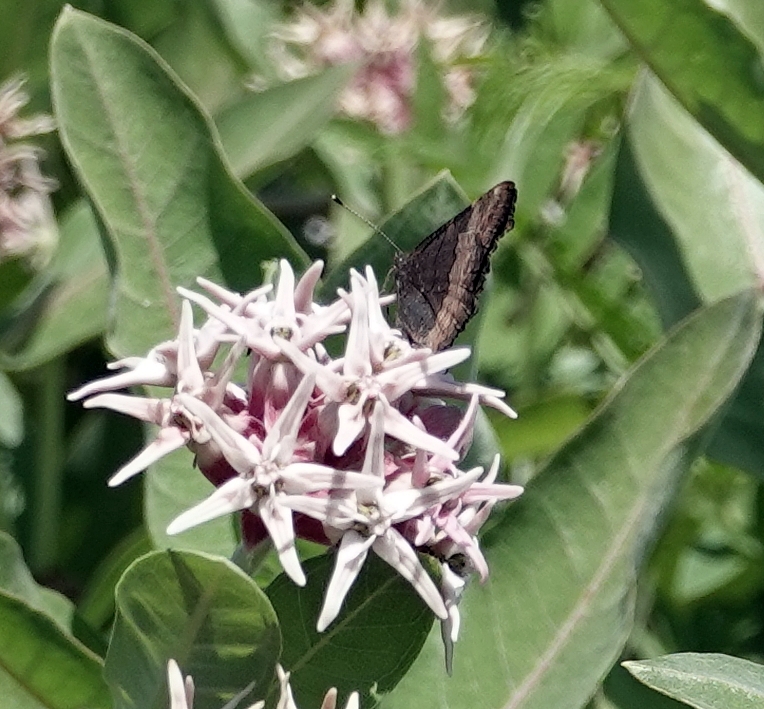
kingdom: Animalia
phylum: Arthropoda
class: Insecta
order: Lepidoptera
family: Nymphalidae
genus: Aglais
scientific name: Aglais milberti
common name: Milbert's tortoiseshell
